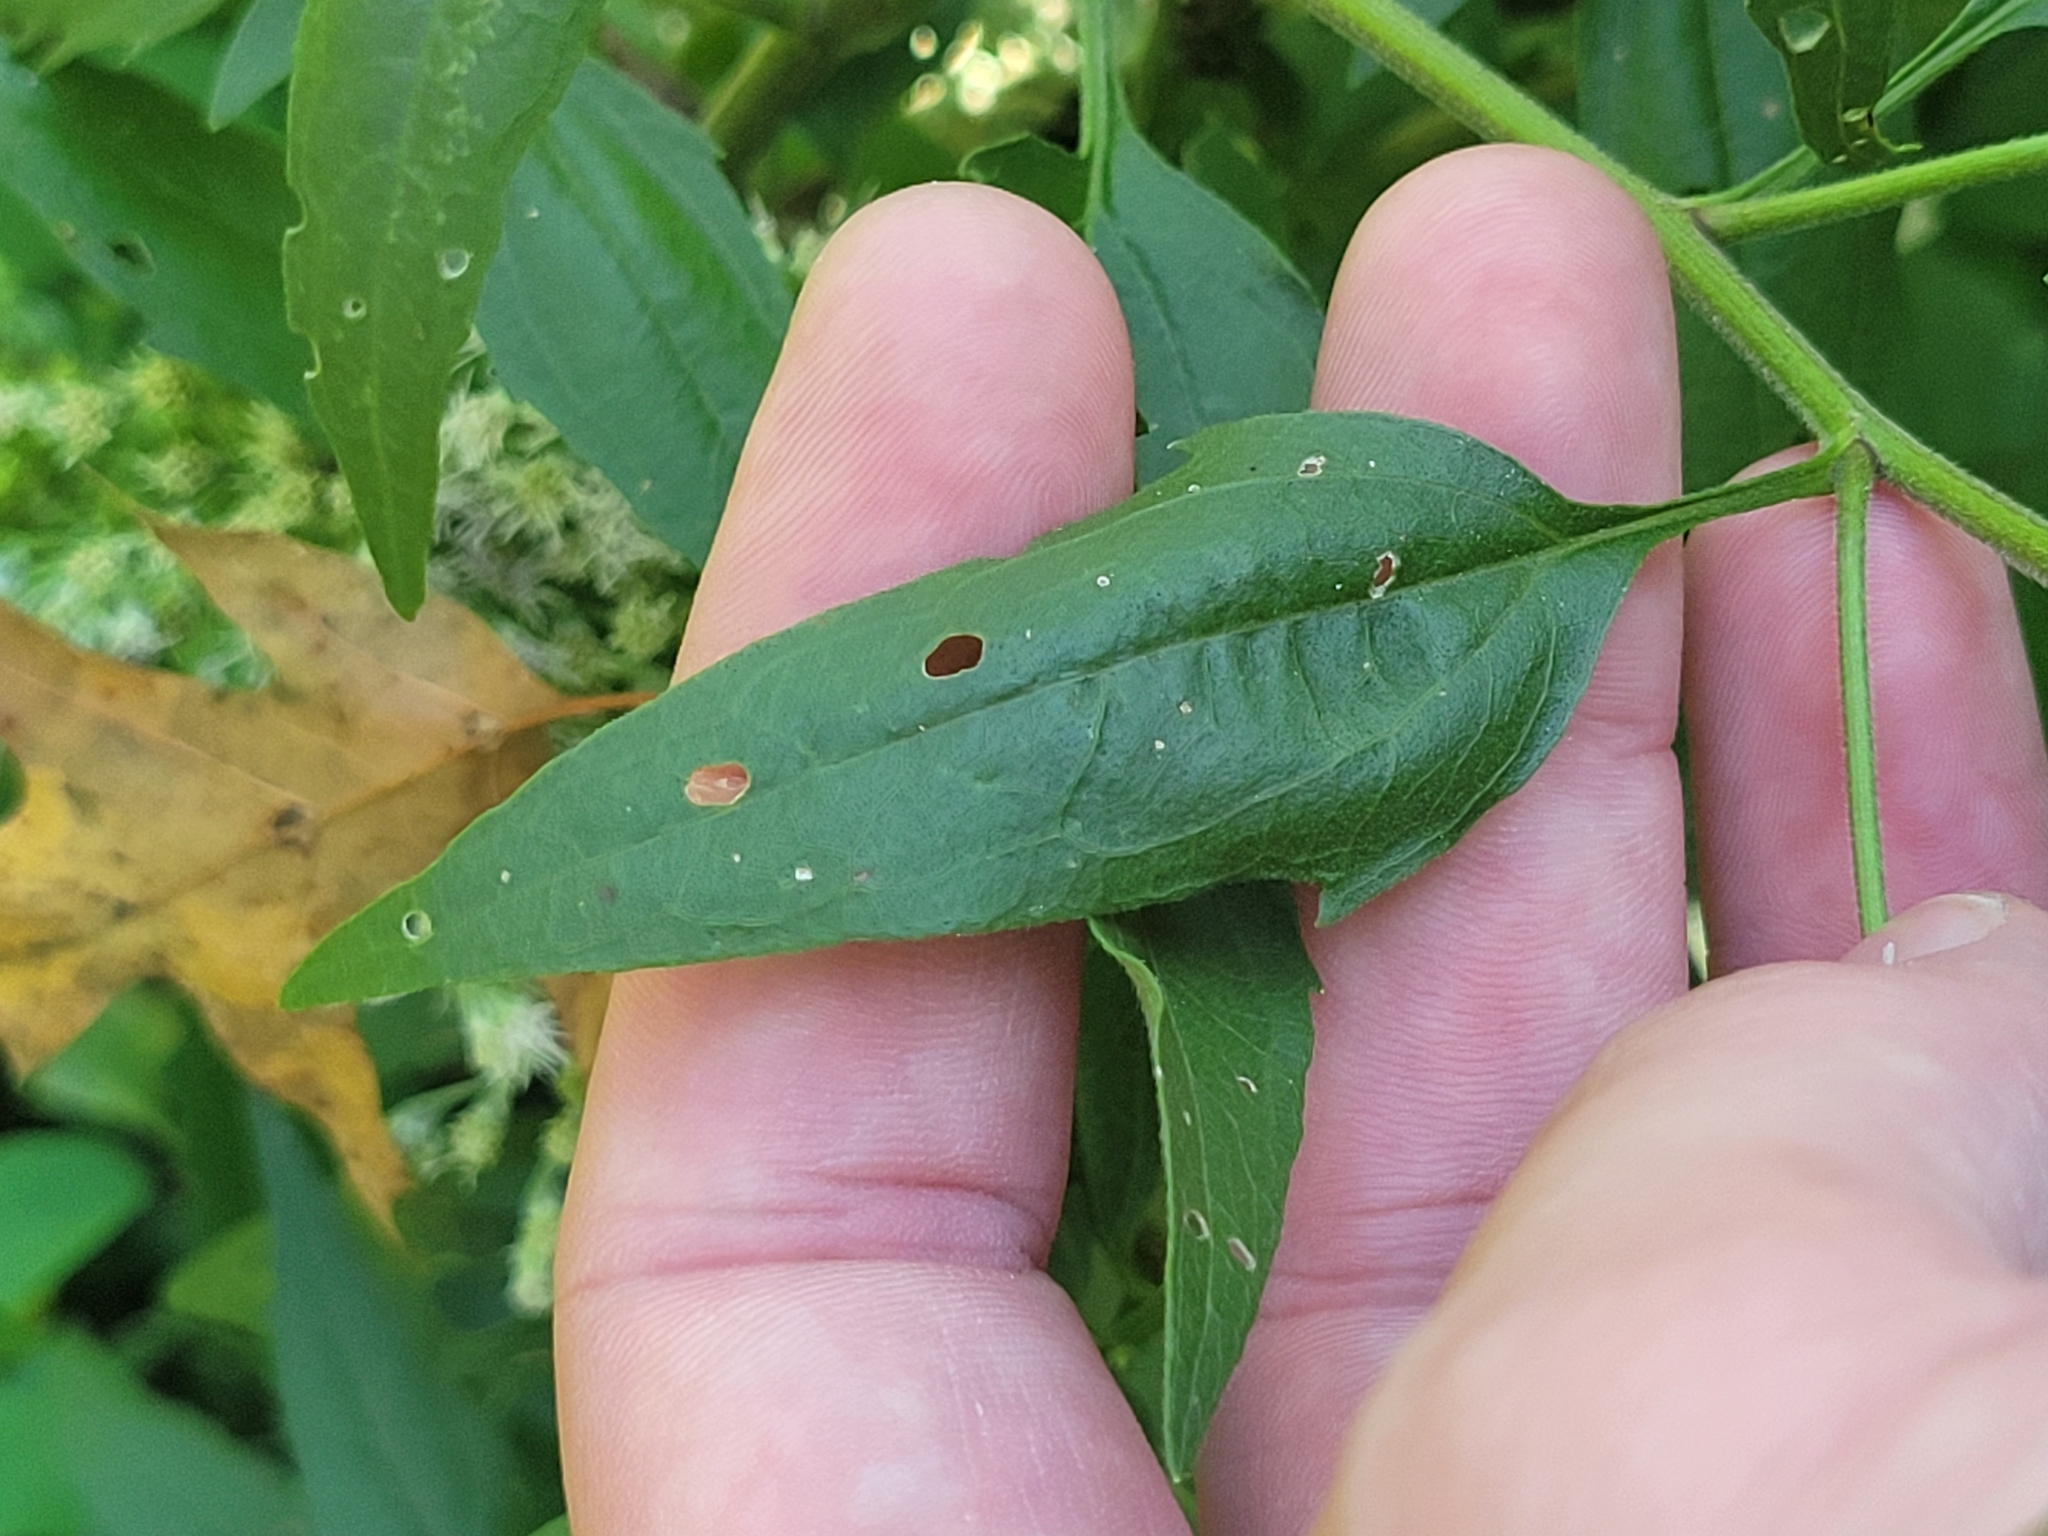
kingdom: Plantae
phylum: Tracheophyta
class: Magnoliopsida
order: Asterales
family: Asteraceae
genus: Eupatorium
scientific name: Eupatorium serotinum
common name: Late boneset
